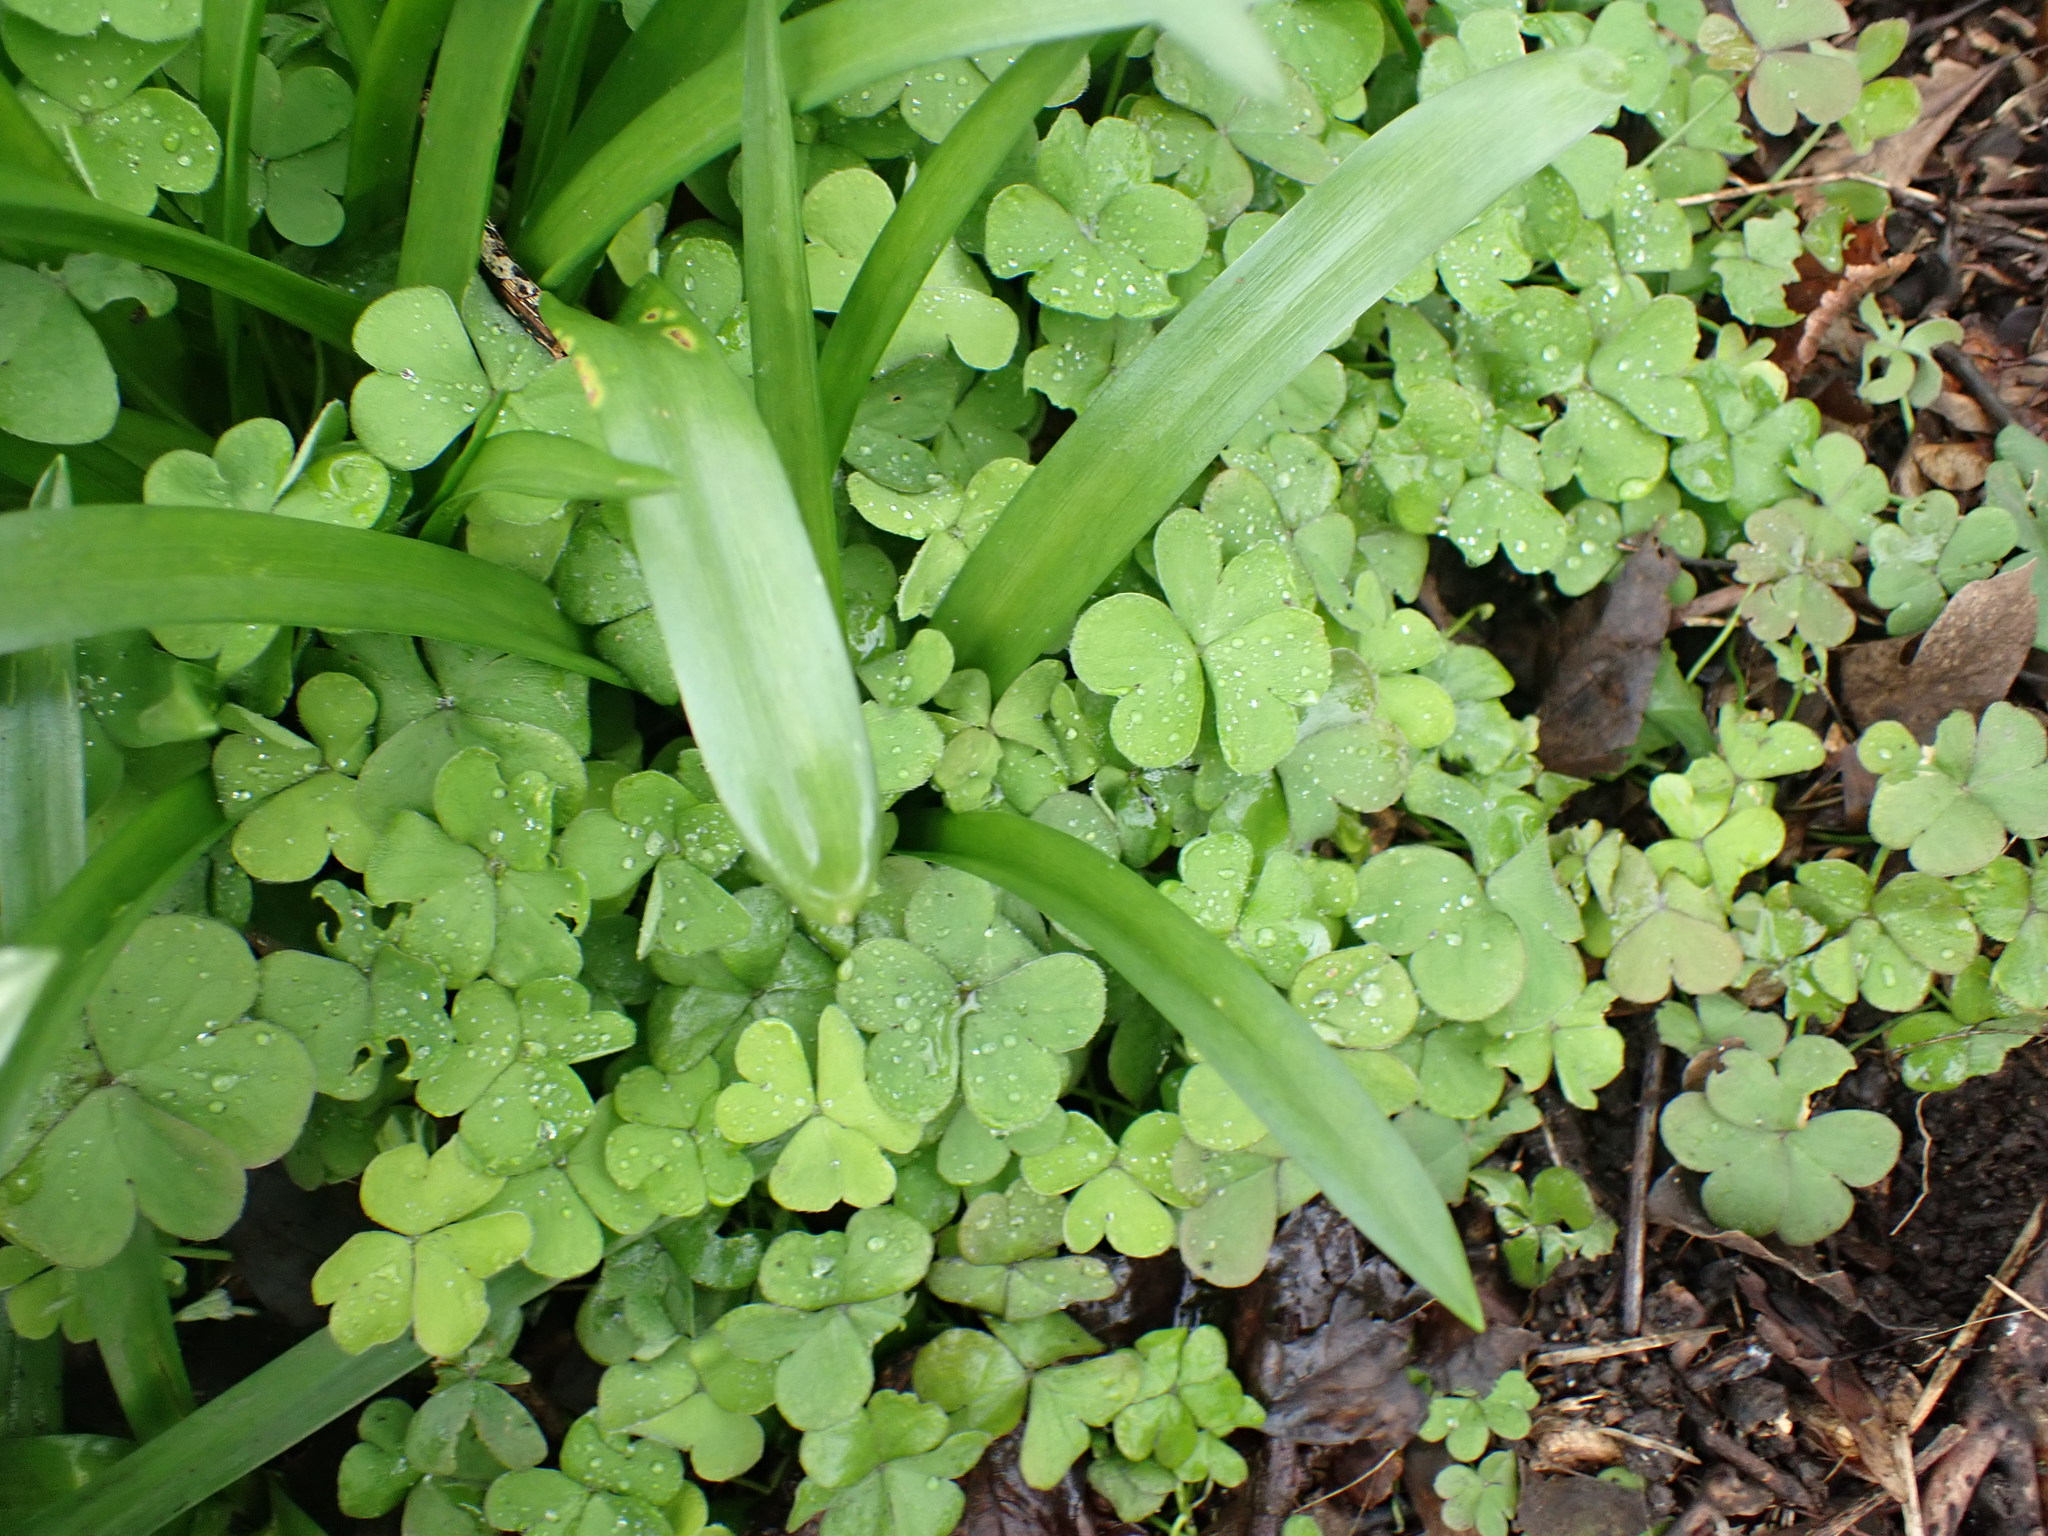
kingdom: Plantae
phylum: Tracheophyta
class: Magnoliopsida
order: Oxalidales
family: Oxalidaceae
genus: Oxalis
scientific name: Oxalis articulata
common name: Pink-sorrel
